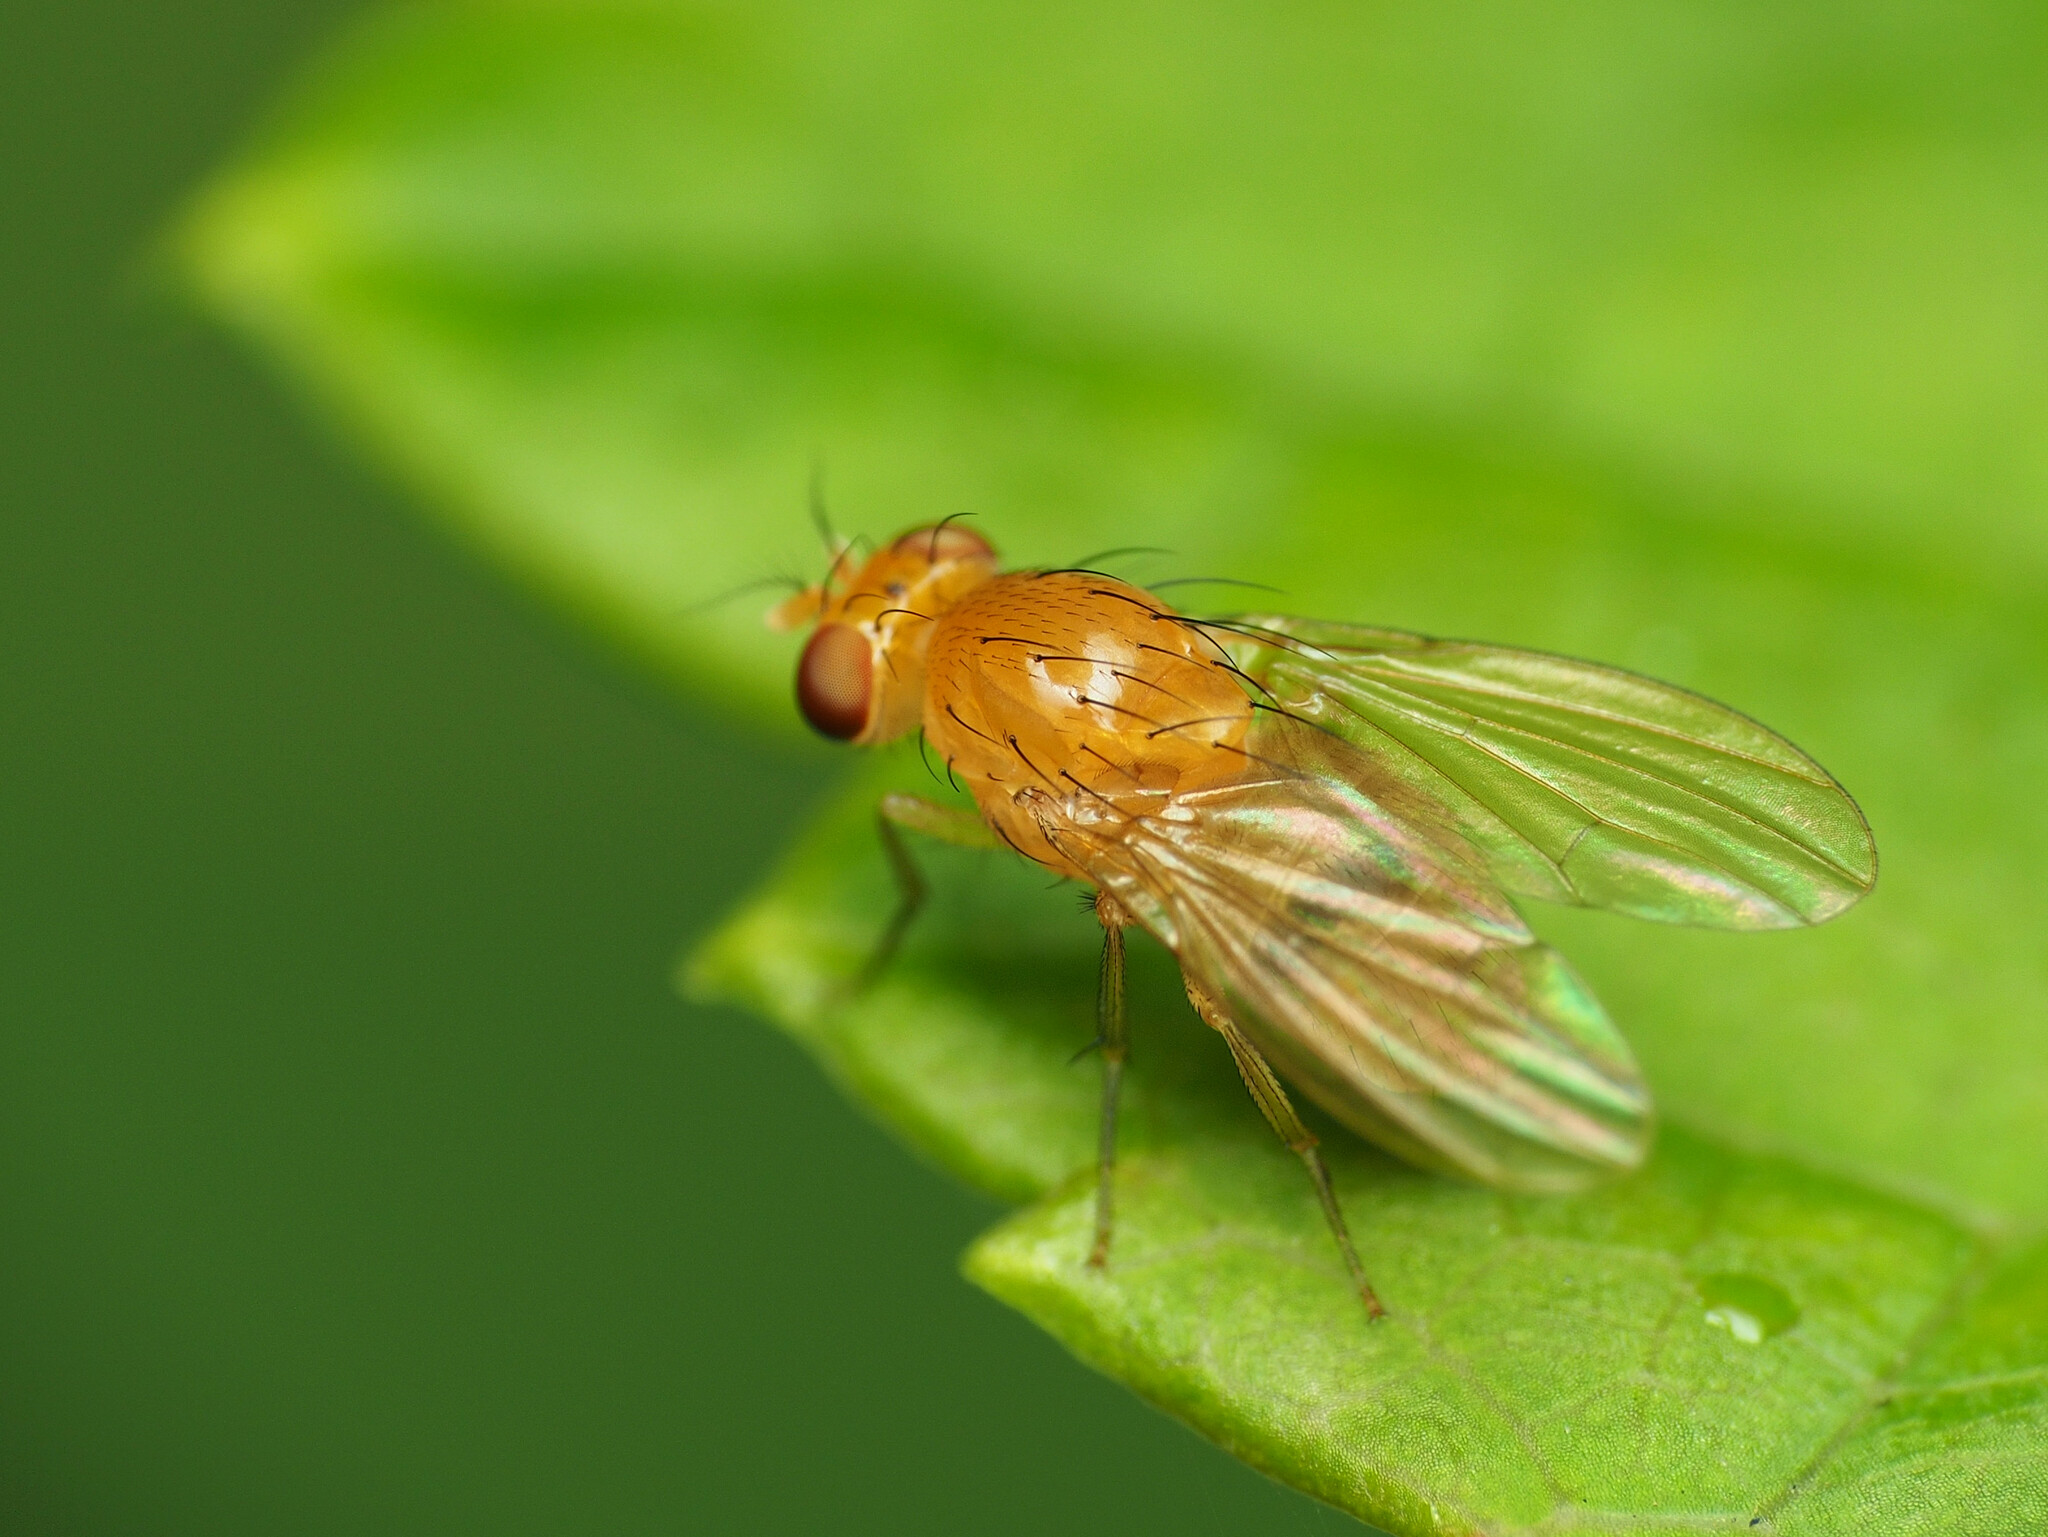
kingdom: Animalia
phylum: Arthropoda
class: Insecta
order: Diptera
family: Lauxaniidae
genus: Neogriphoneura
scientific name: Neogriphoneura sordida
